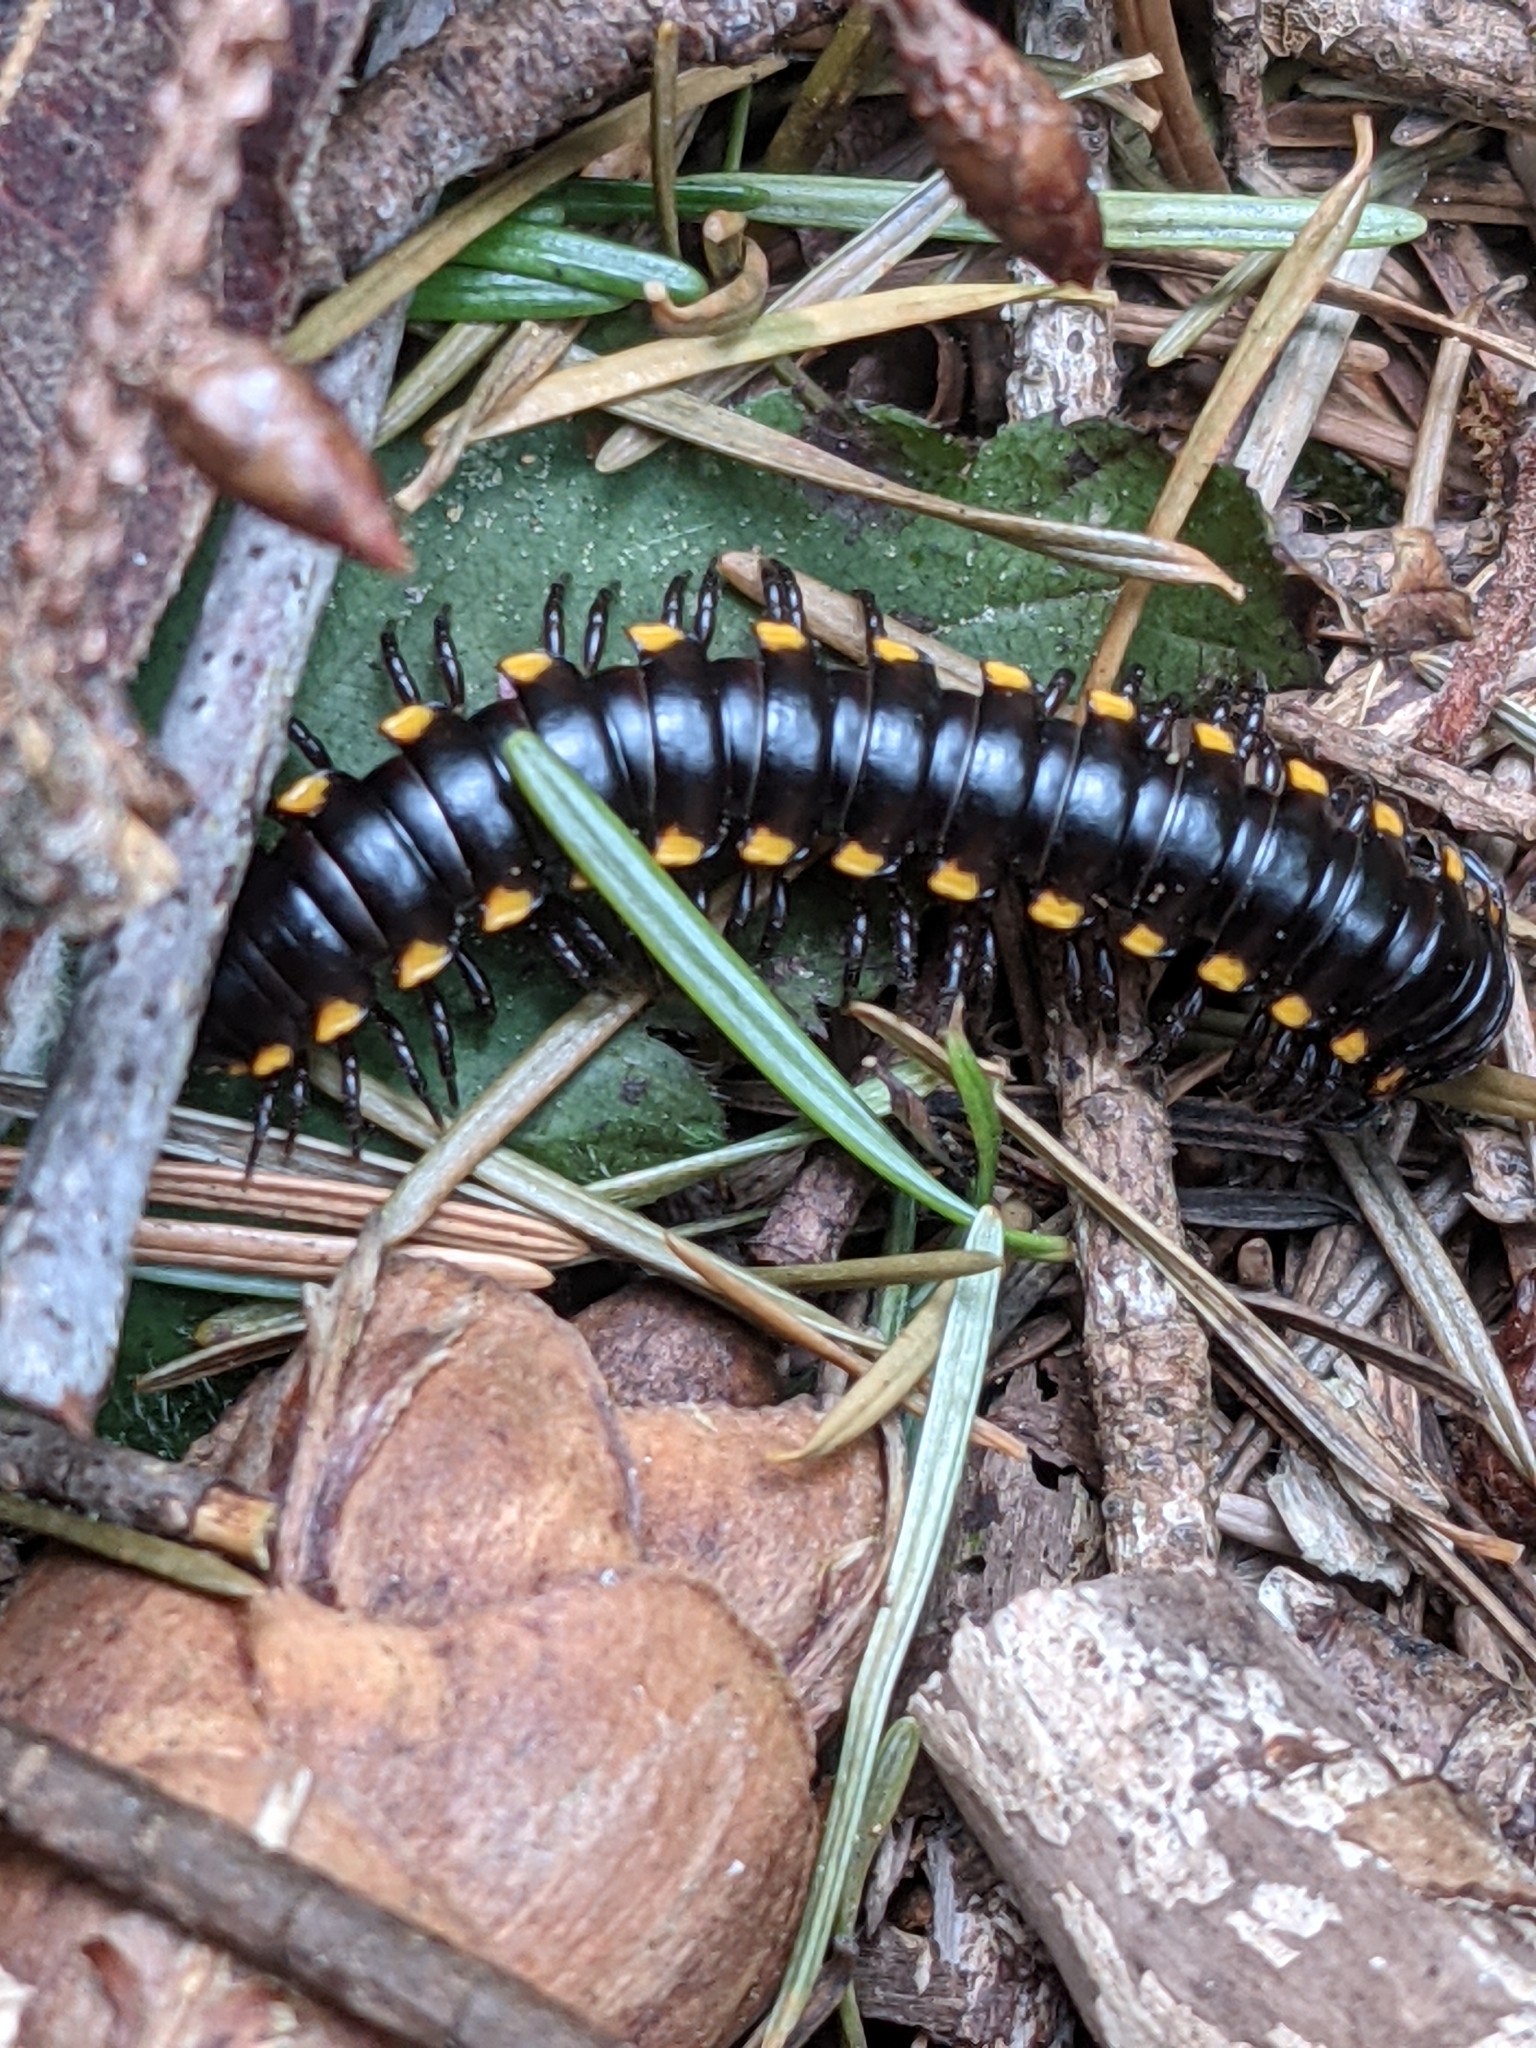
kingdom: Animalia
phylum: Arthropoda
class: Diplopoda
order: Polydesmida
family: Xystodesmidae
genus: Harpaphe
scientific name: Harpaphe haydeniana
